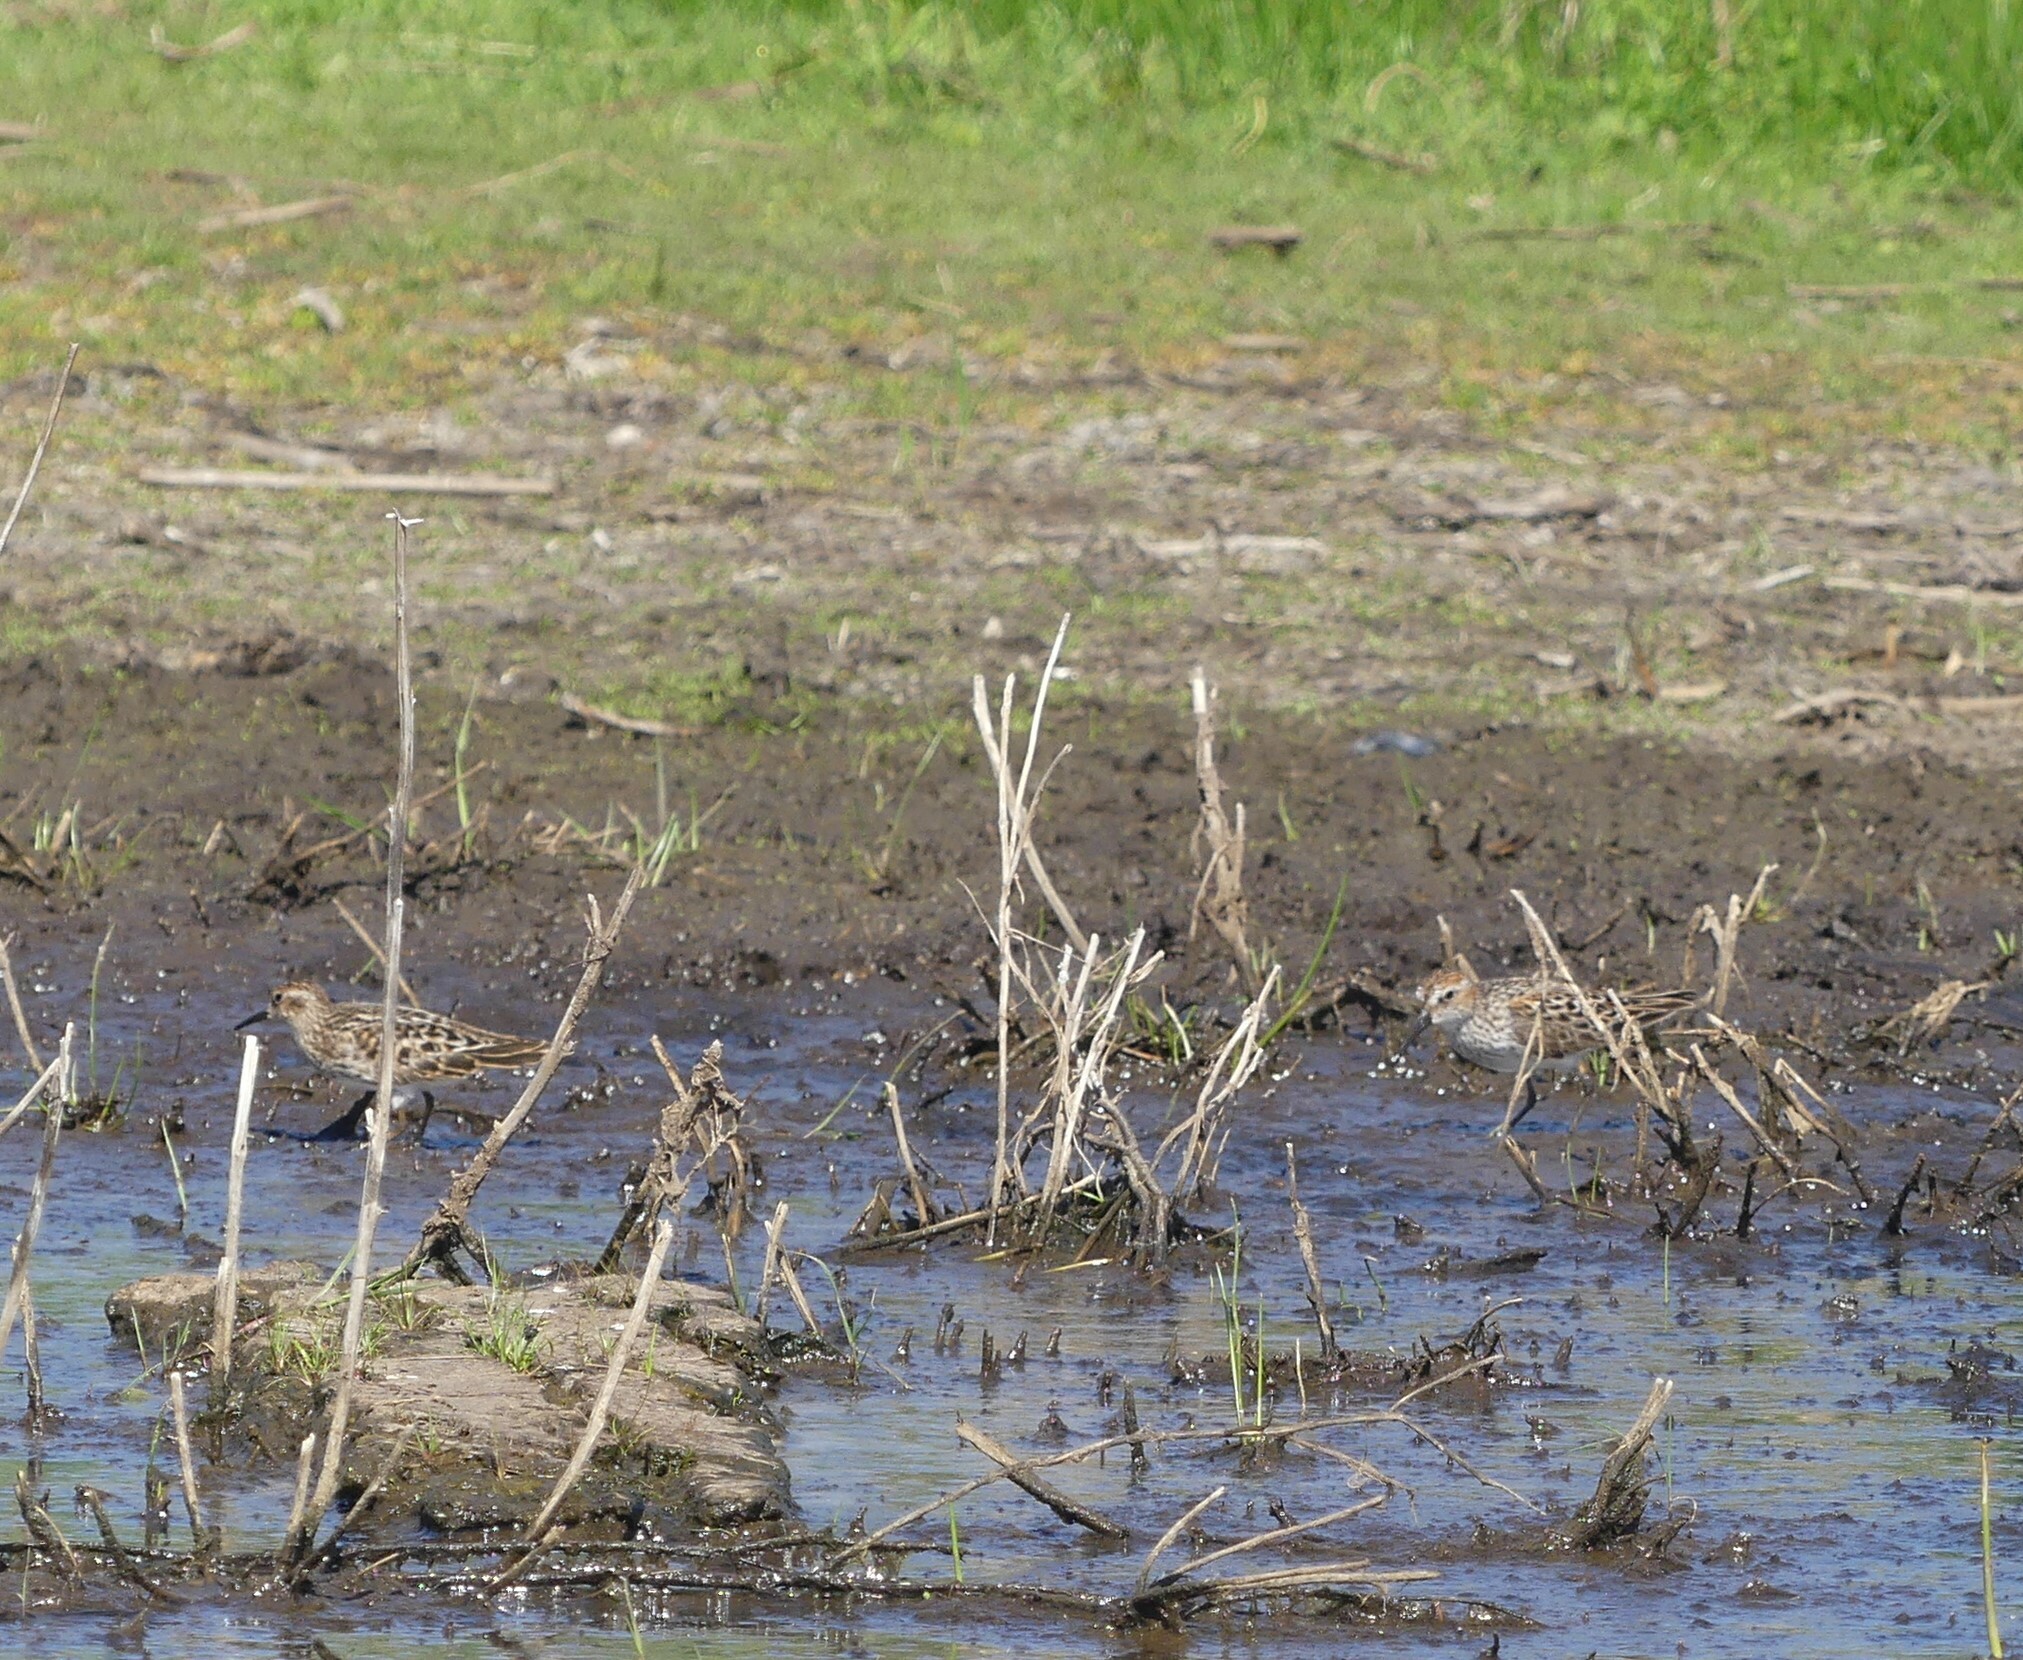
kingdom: Animalia
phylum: Chordata
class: Aves
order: Charadriiformes
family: Scolopacidae
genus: Calidris
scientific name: Calidris mauri
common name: Western sandpiper
